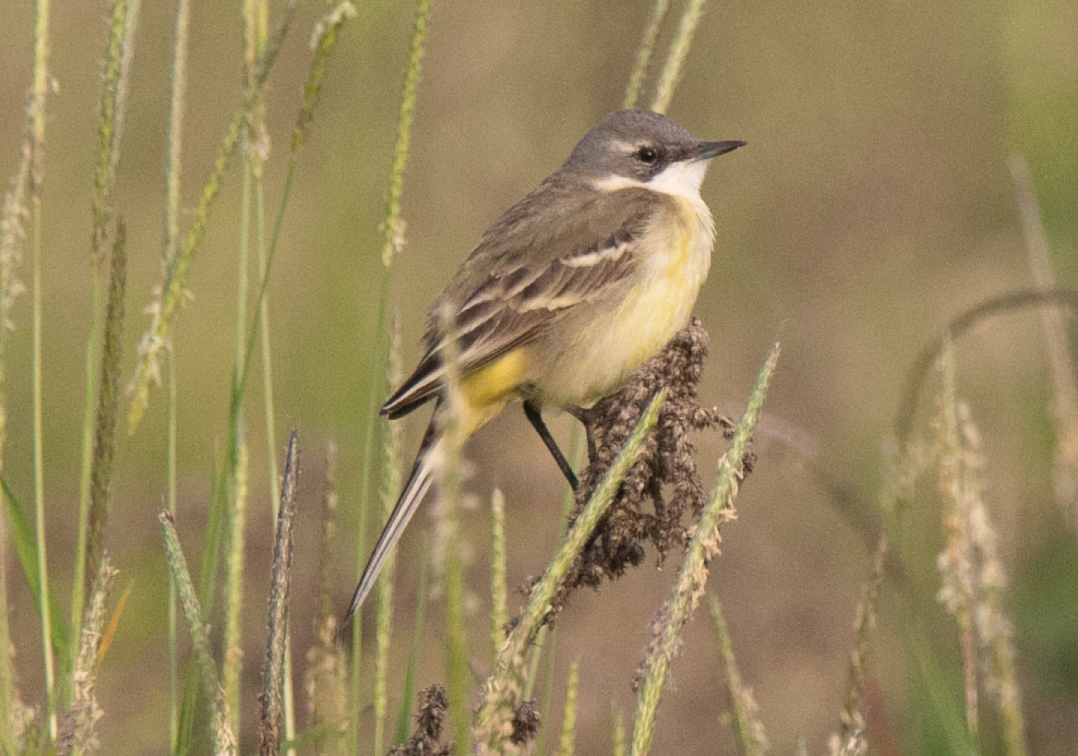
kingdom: Animalia
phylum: Chordata
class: Aves
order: Passeriformes
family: Motacillidae
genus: Motacilla
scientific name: Motacilla flava
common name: Western yellow wagtail
